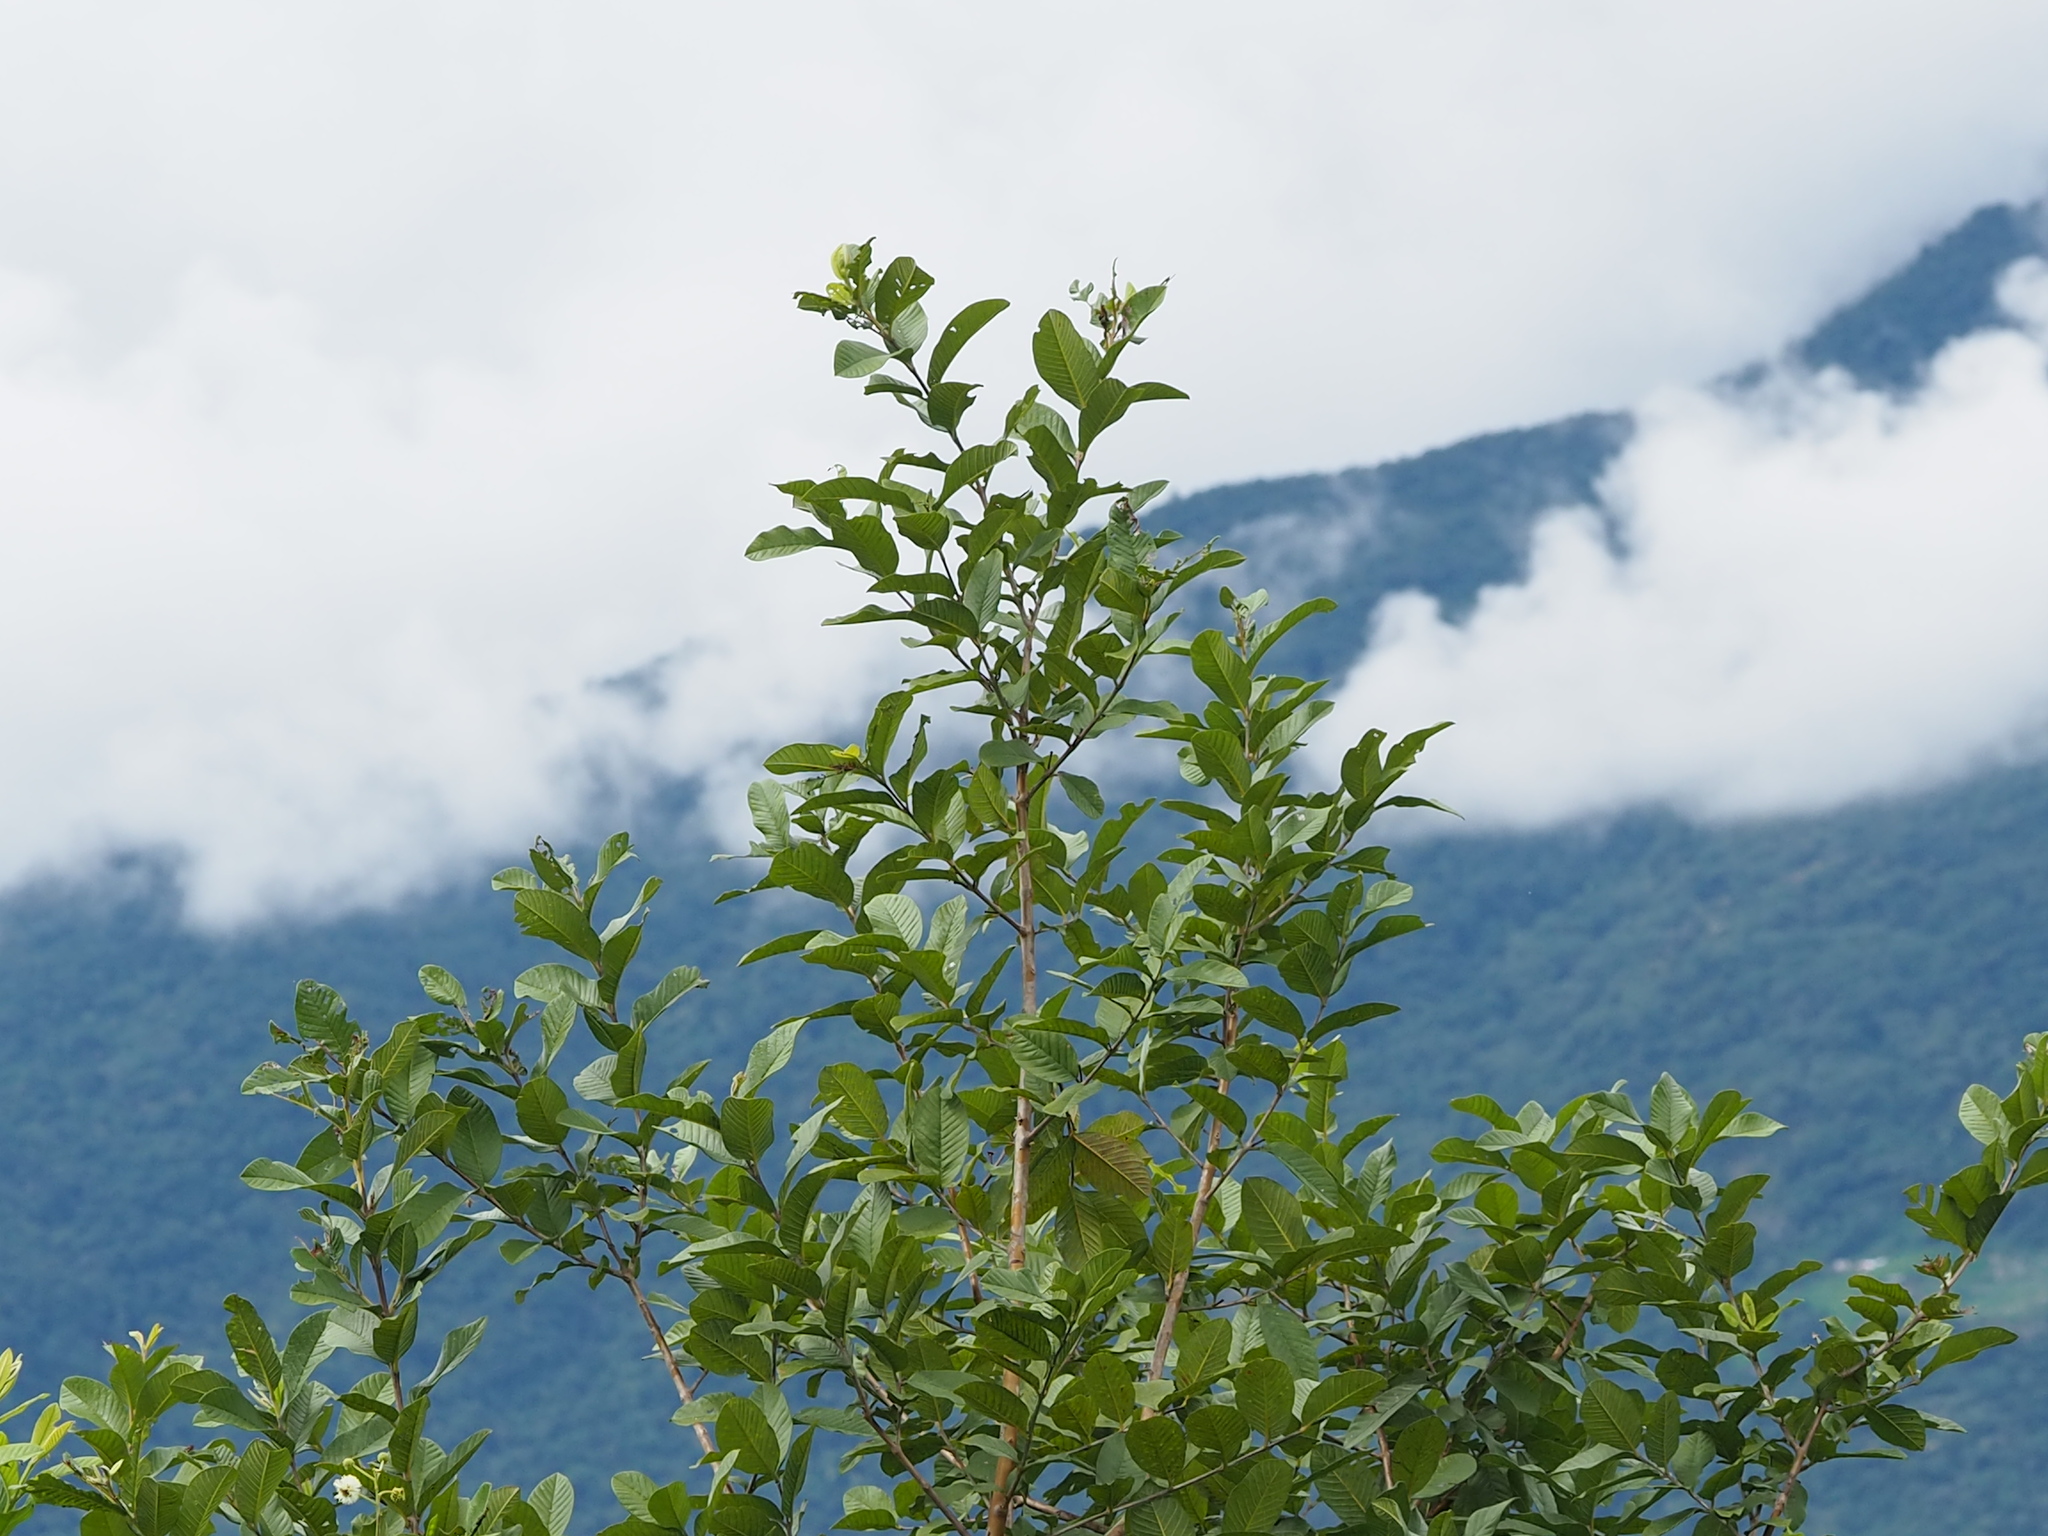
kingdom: Plantae
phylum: Tracheophyta
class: Magnoliopsida
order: Myrtales
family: Myrtaceae
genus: Psidium
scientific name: Psidium guajava
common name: Guava
